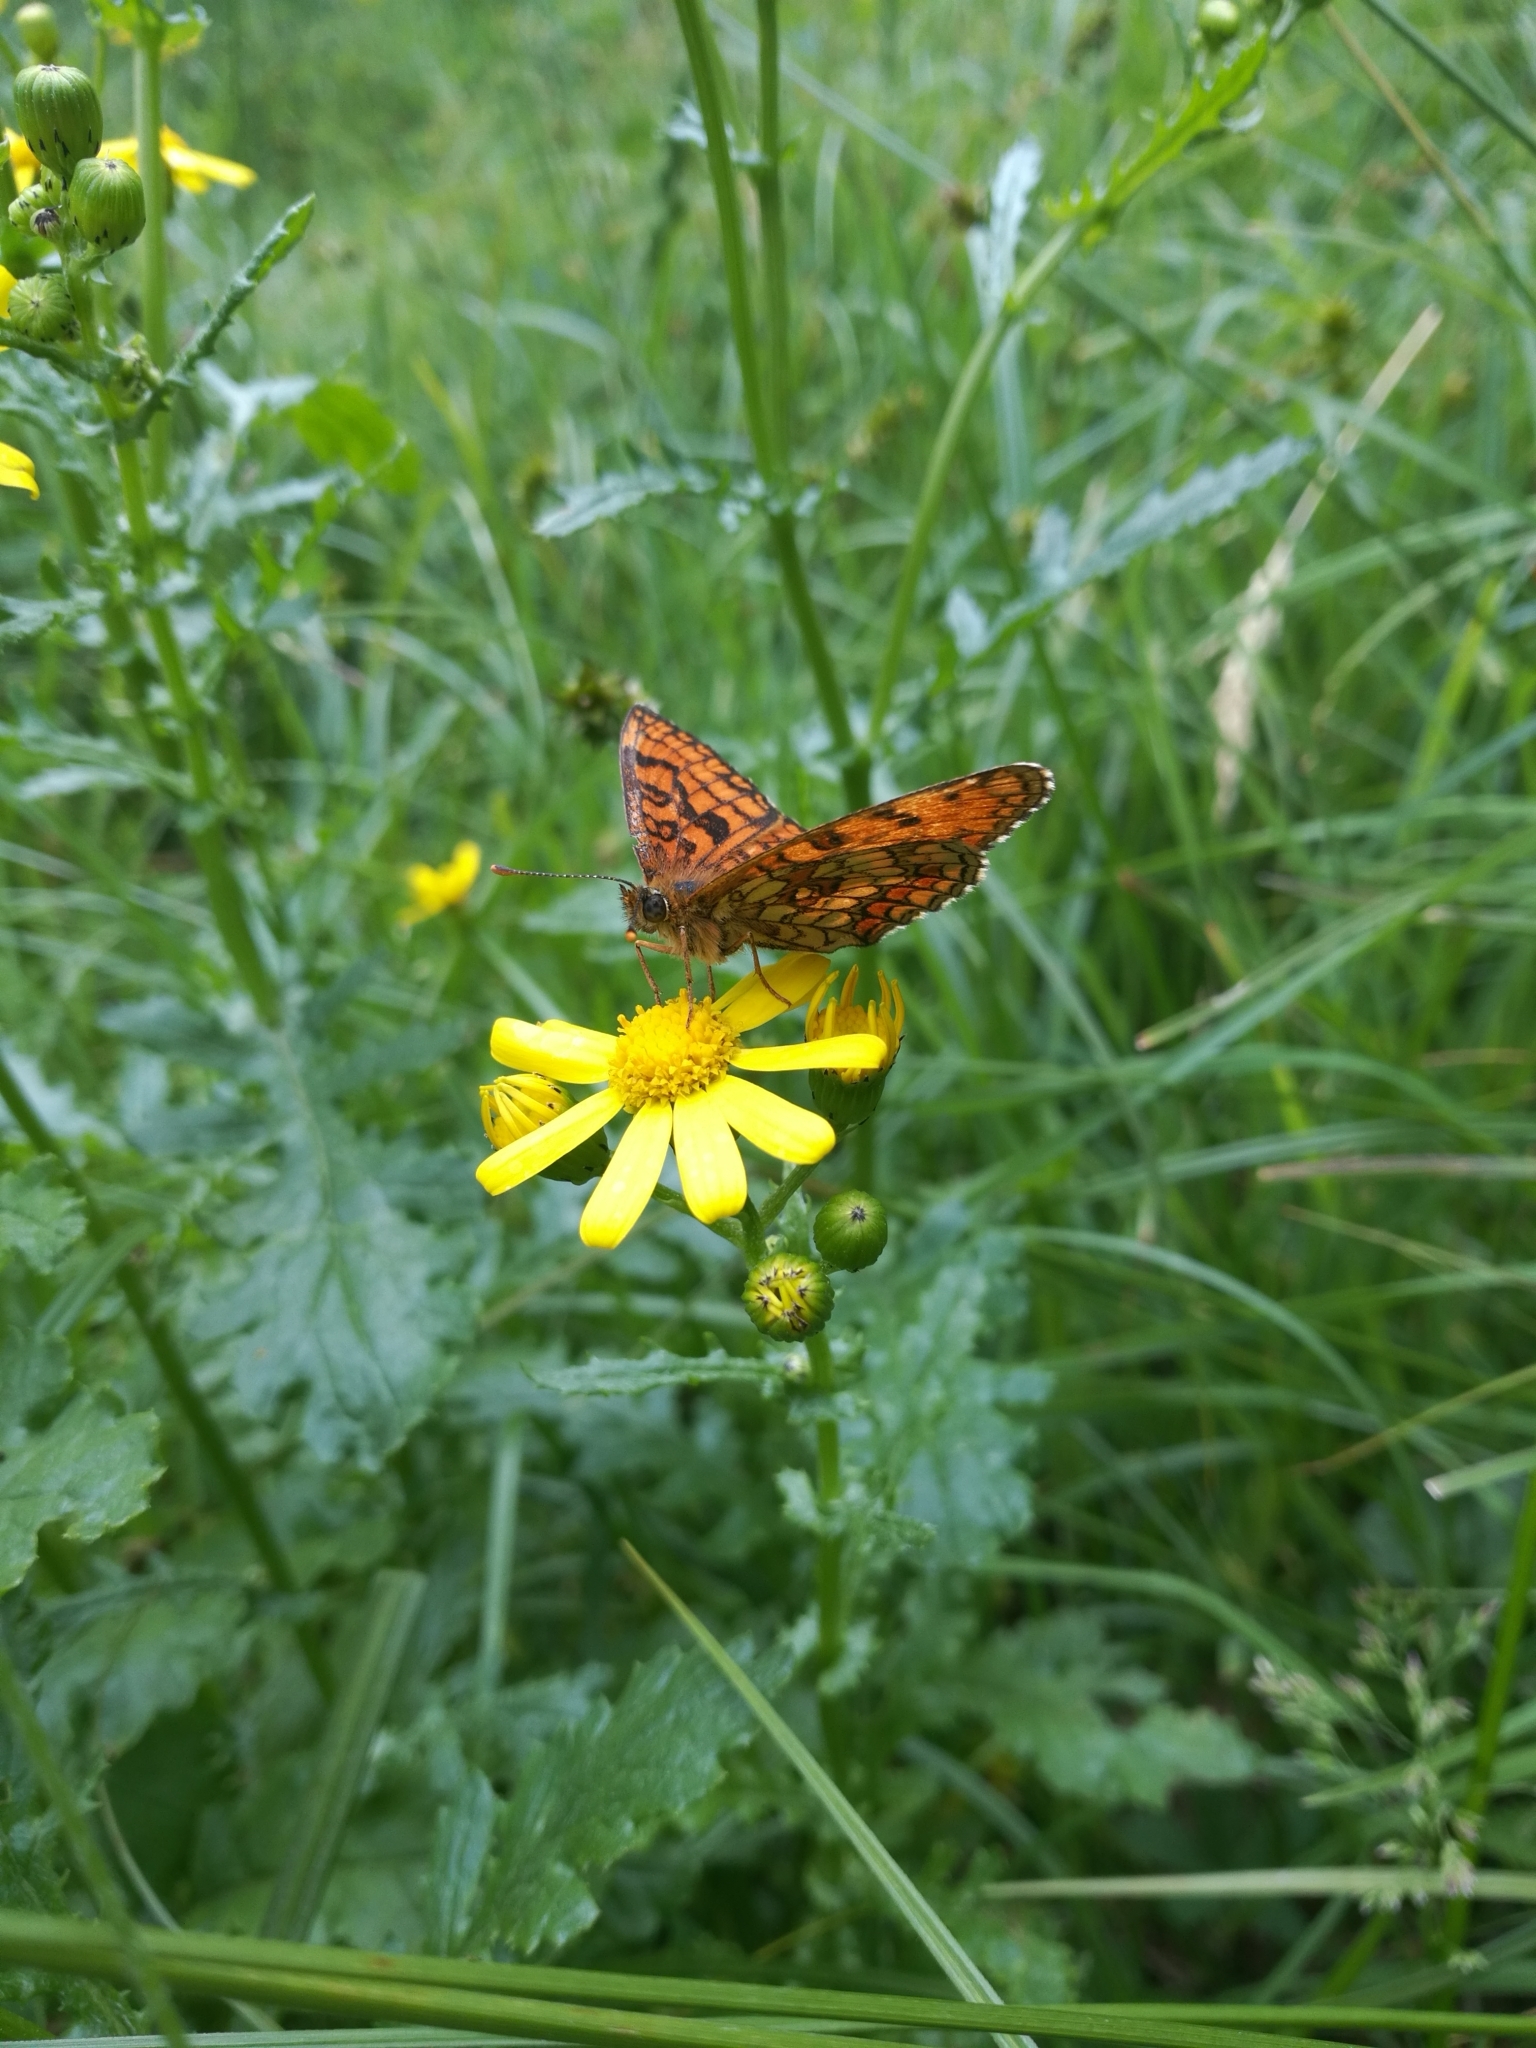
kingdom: Animalia
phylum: Arthropoda
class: Insecta
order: Lepidoptera
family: Nymphalidae
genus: Mellicta
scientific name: Mellicta athalia
